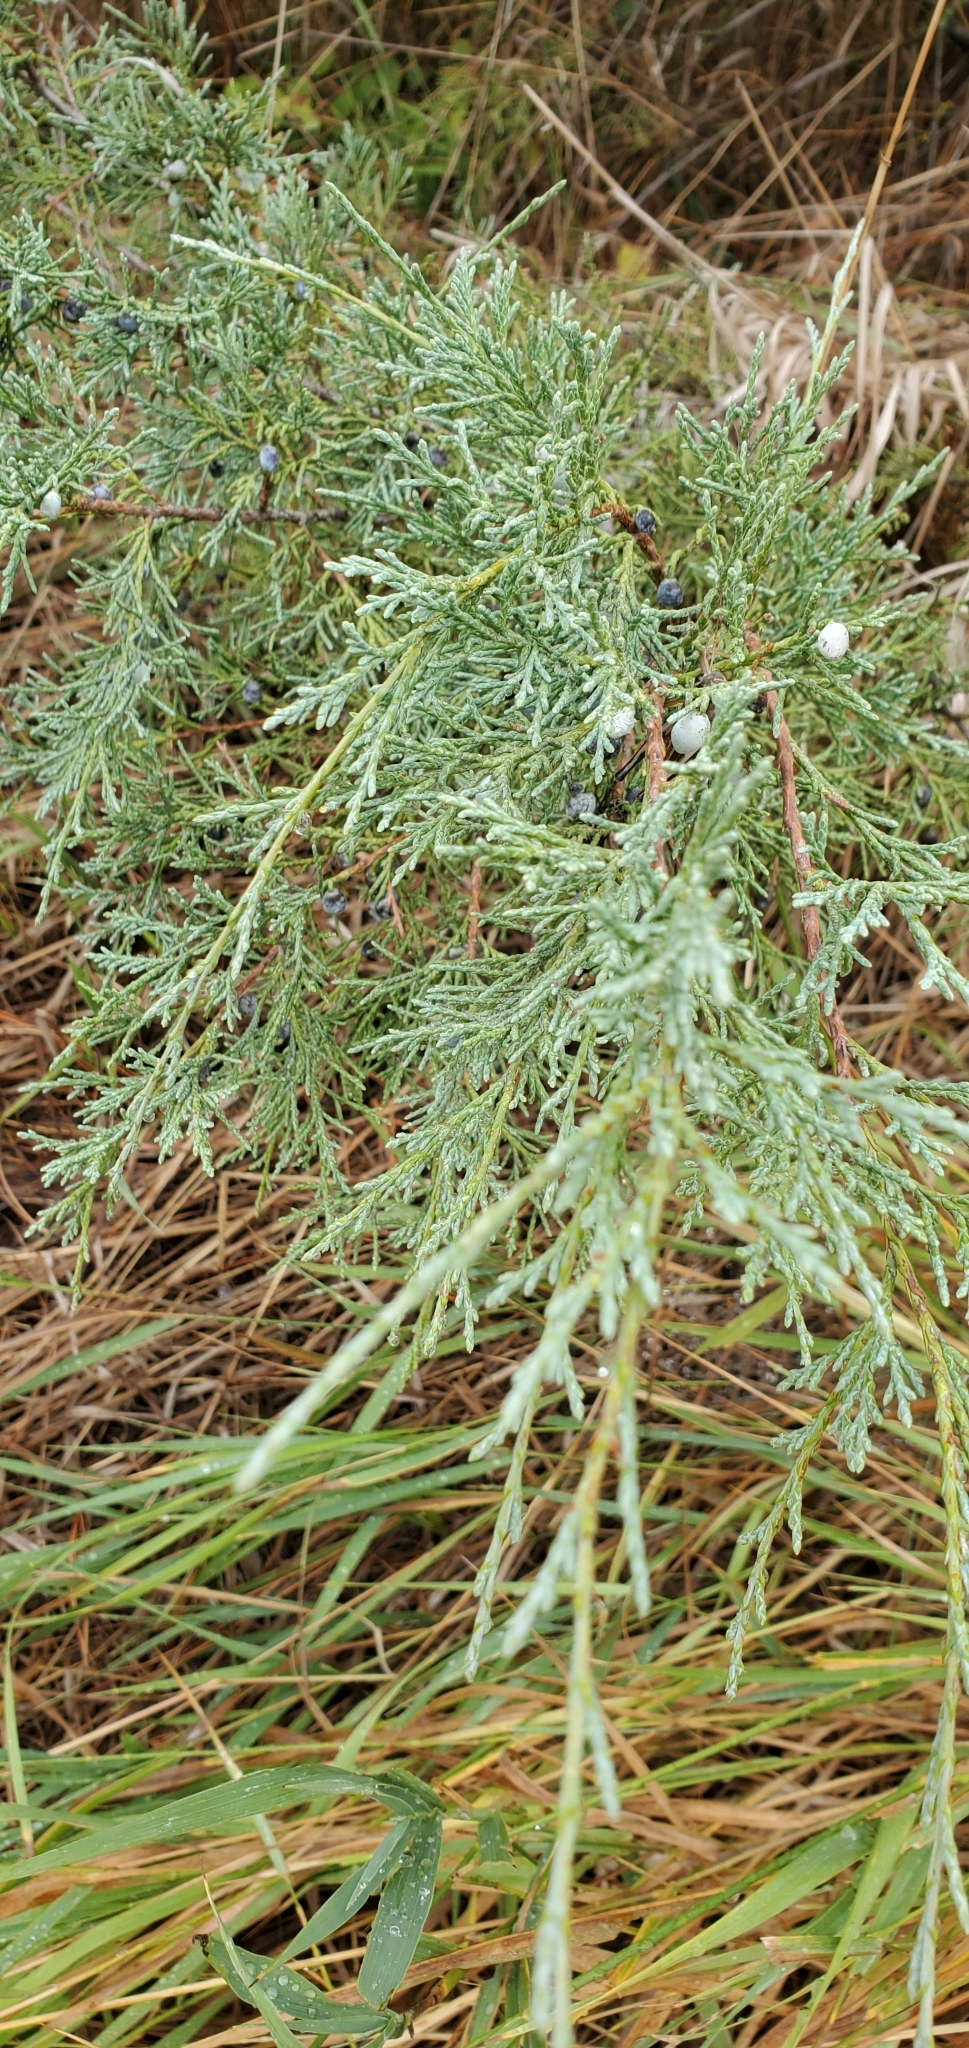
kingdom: Plantae
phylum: Tracheophyta
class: Pinopsida
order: Pinales
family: Cupressaceae
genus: Juniperus
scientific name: Juniperus scopulorum
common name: Rocky mountain juniper
